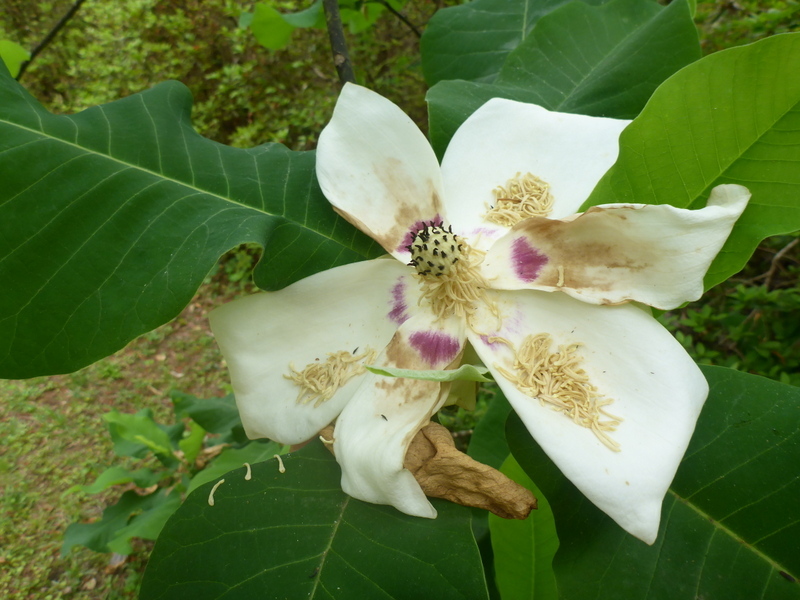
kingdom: Plantae
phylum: Tracheophyta
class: Magnoliopsida
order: Magnoliales
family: Magnoliaceae
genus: Magnolia
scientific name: Magnolia ashei
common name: Ashe's magnolia
